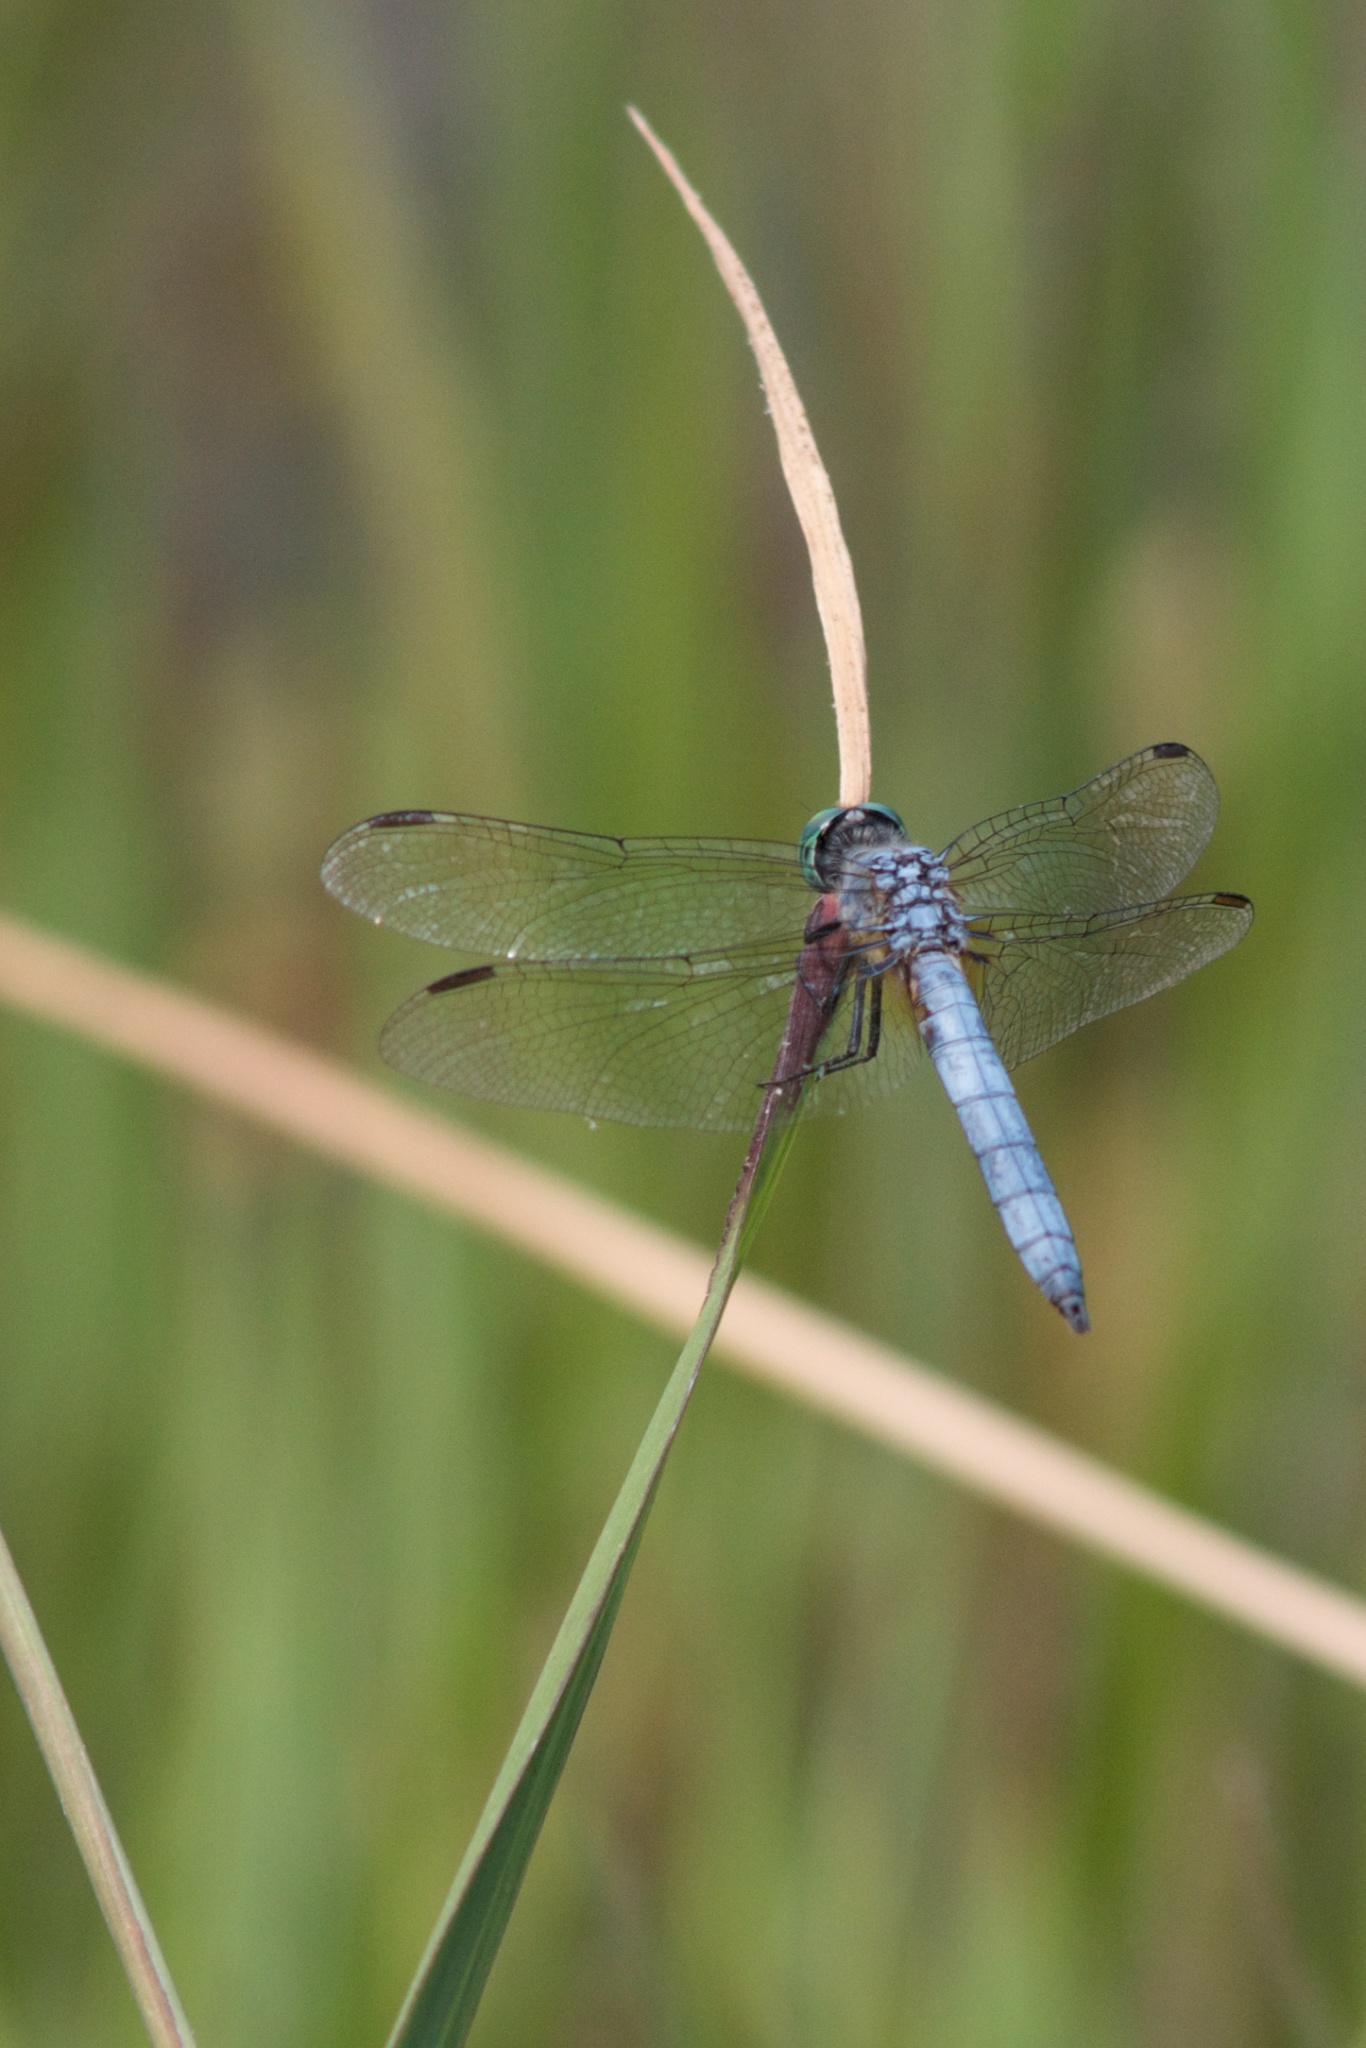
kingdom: Animalia
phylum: Arthropoda
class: Insecta
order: Odonata
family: Libellulidae
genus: Pachydiplax
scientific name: Pachydiplax longipennis
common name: Blue dasher
